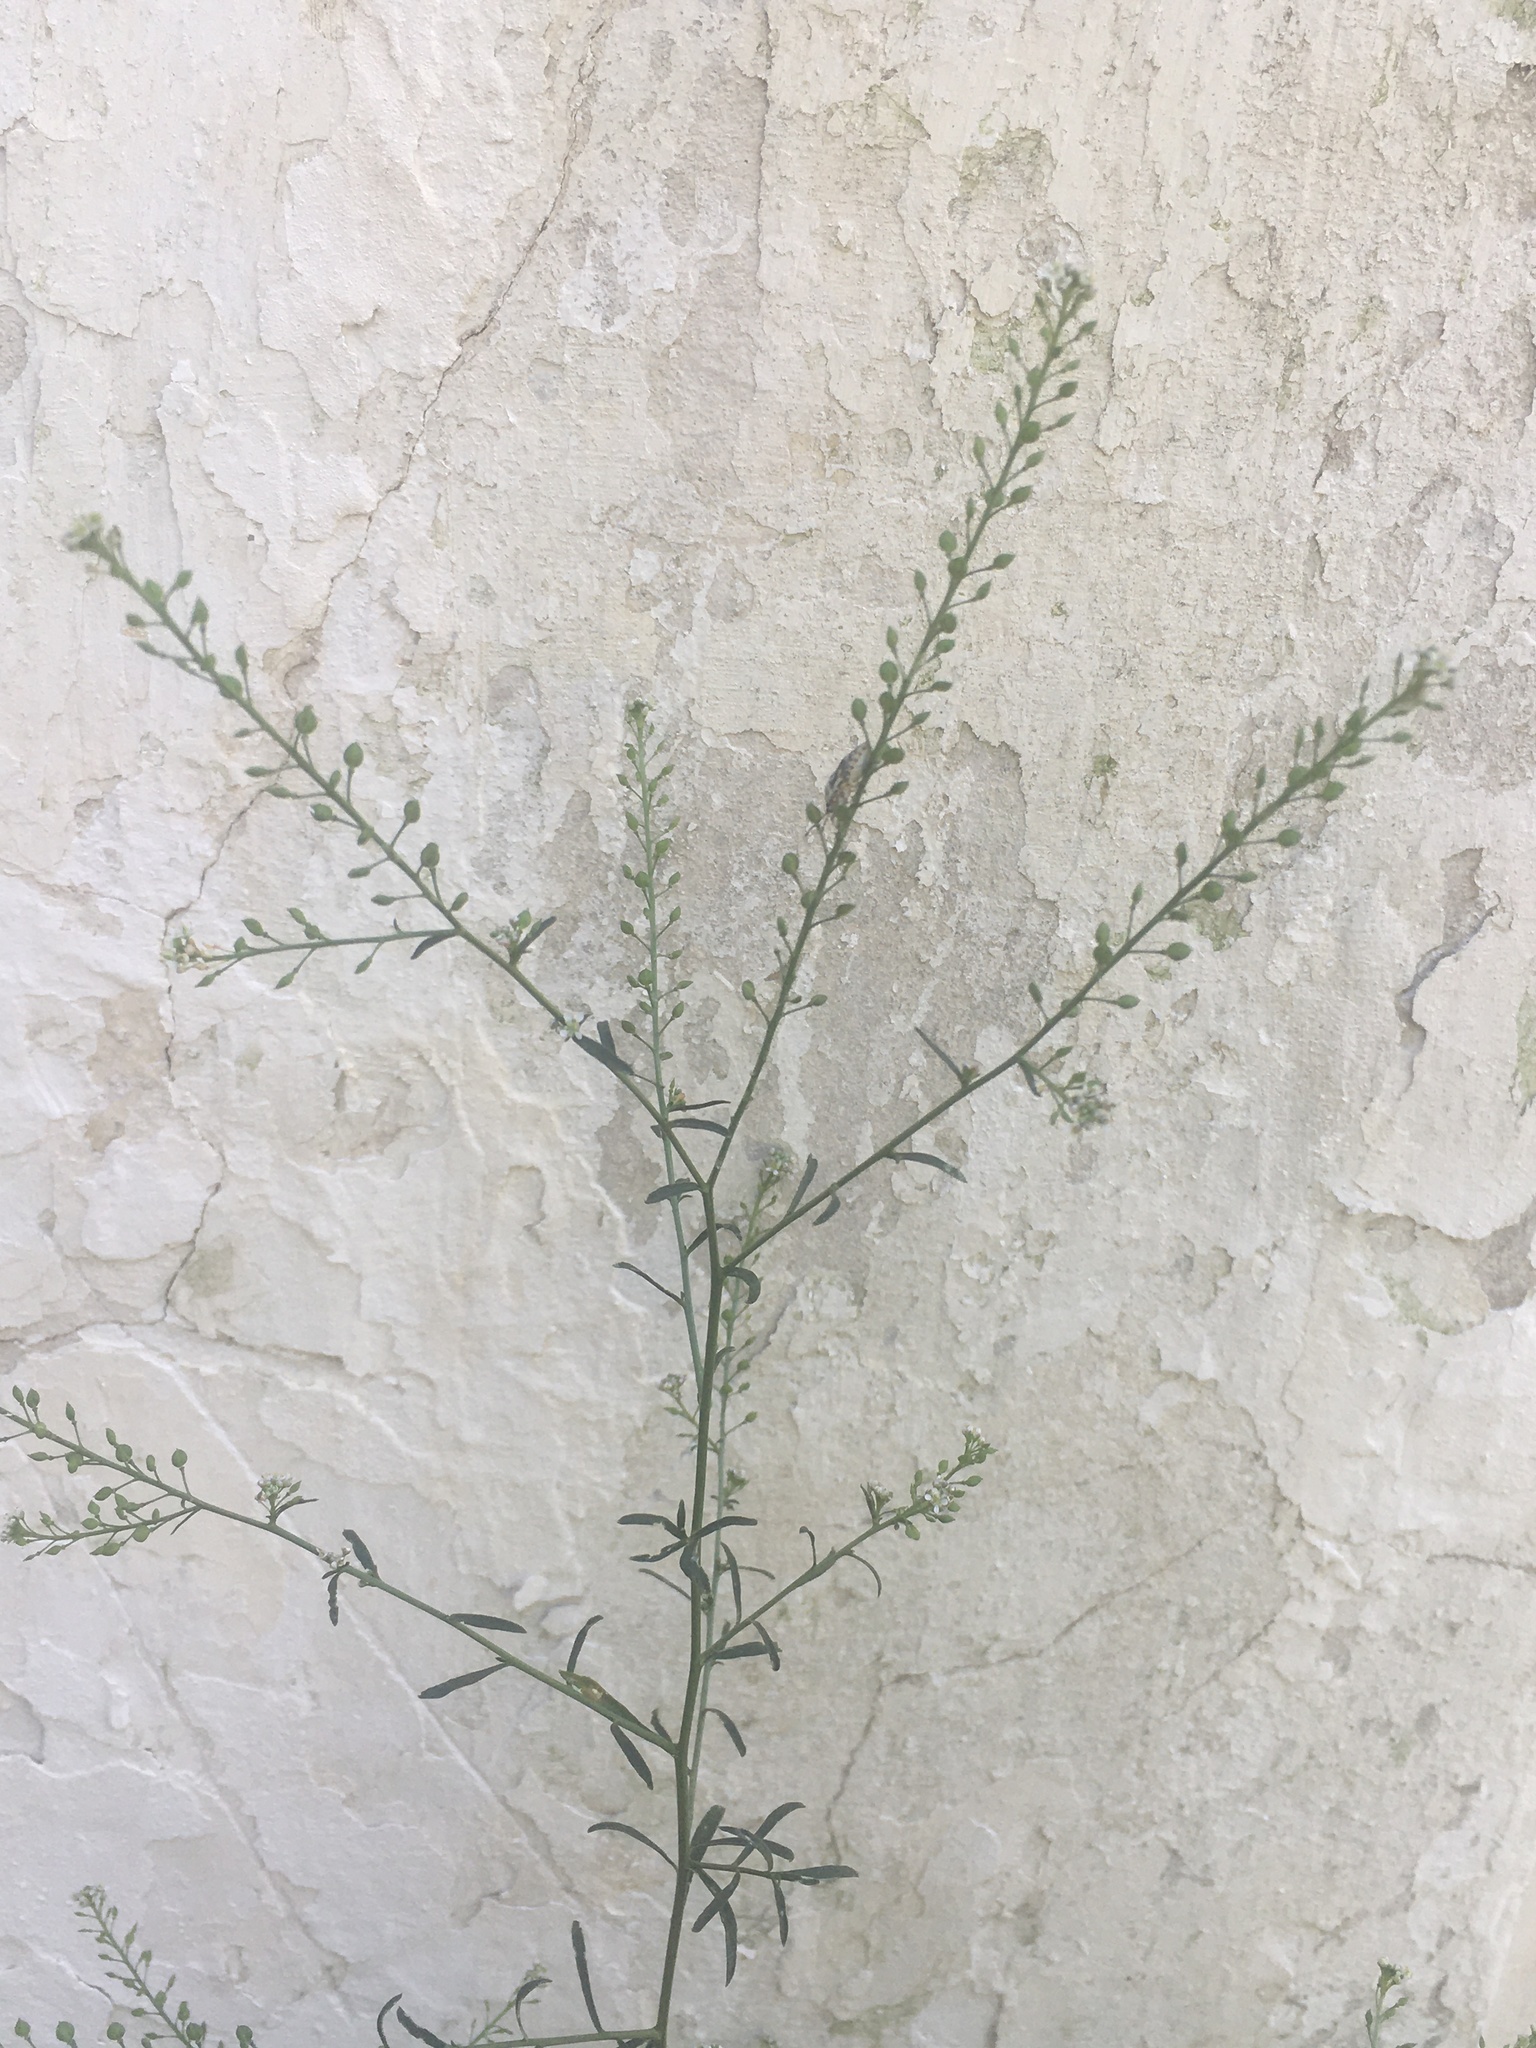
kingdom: Plantae
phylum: Tracheophyta
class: Magnoliopsida
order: Brassicales
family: Brassicaceae
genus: Lepidium
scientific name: Lepidium graminifolium
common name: Tall pepperwort
